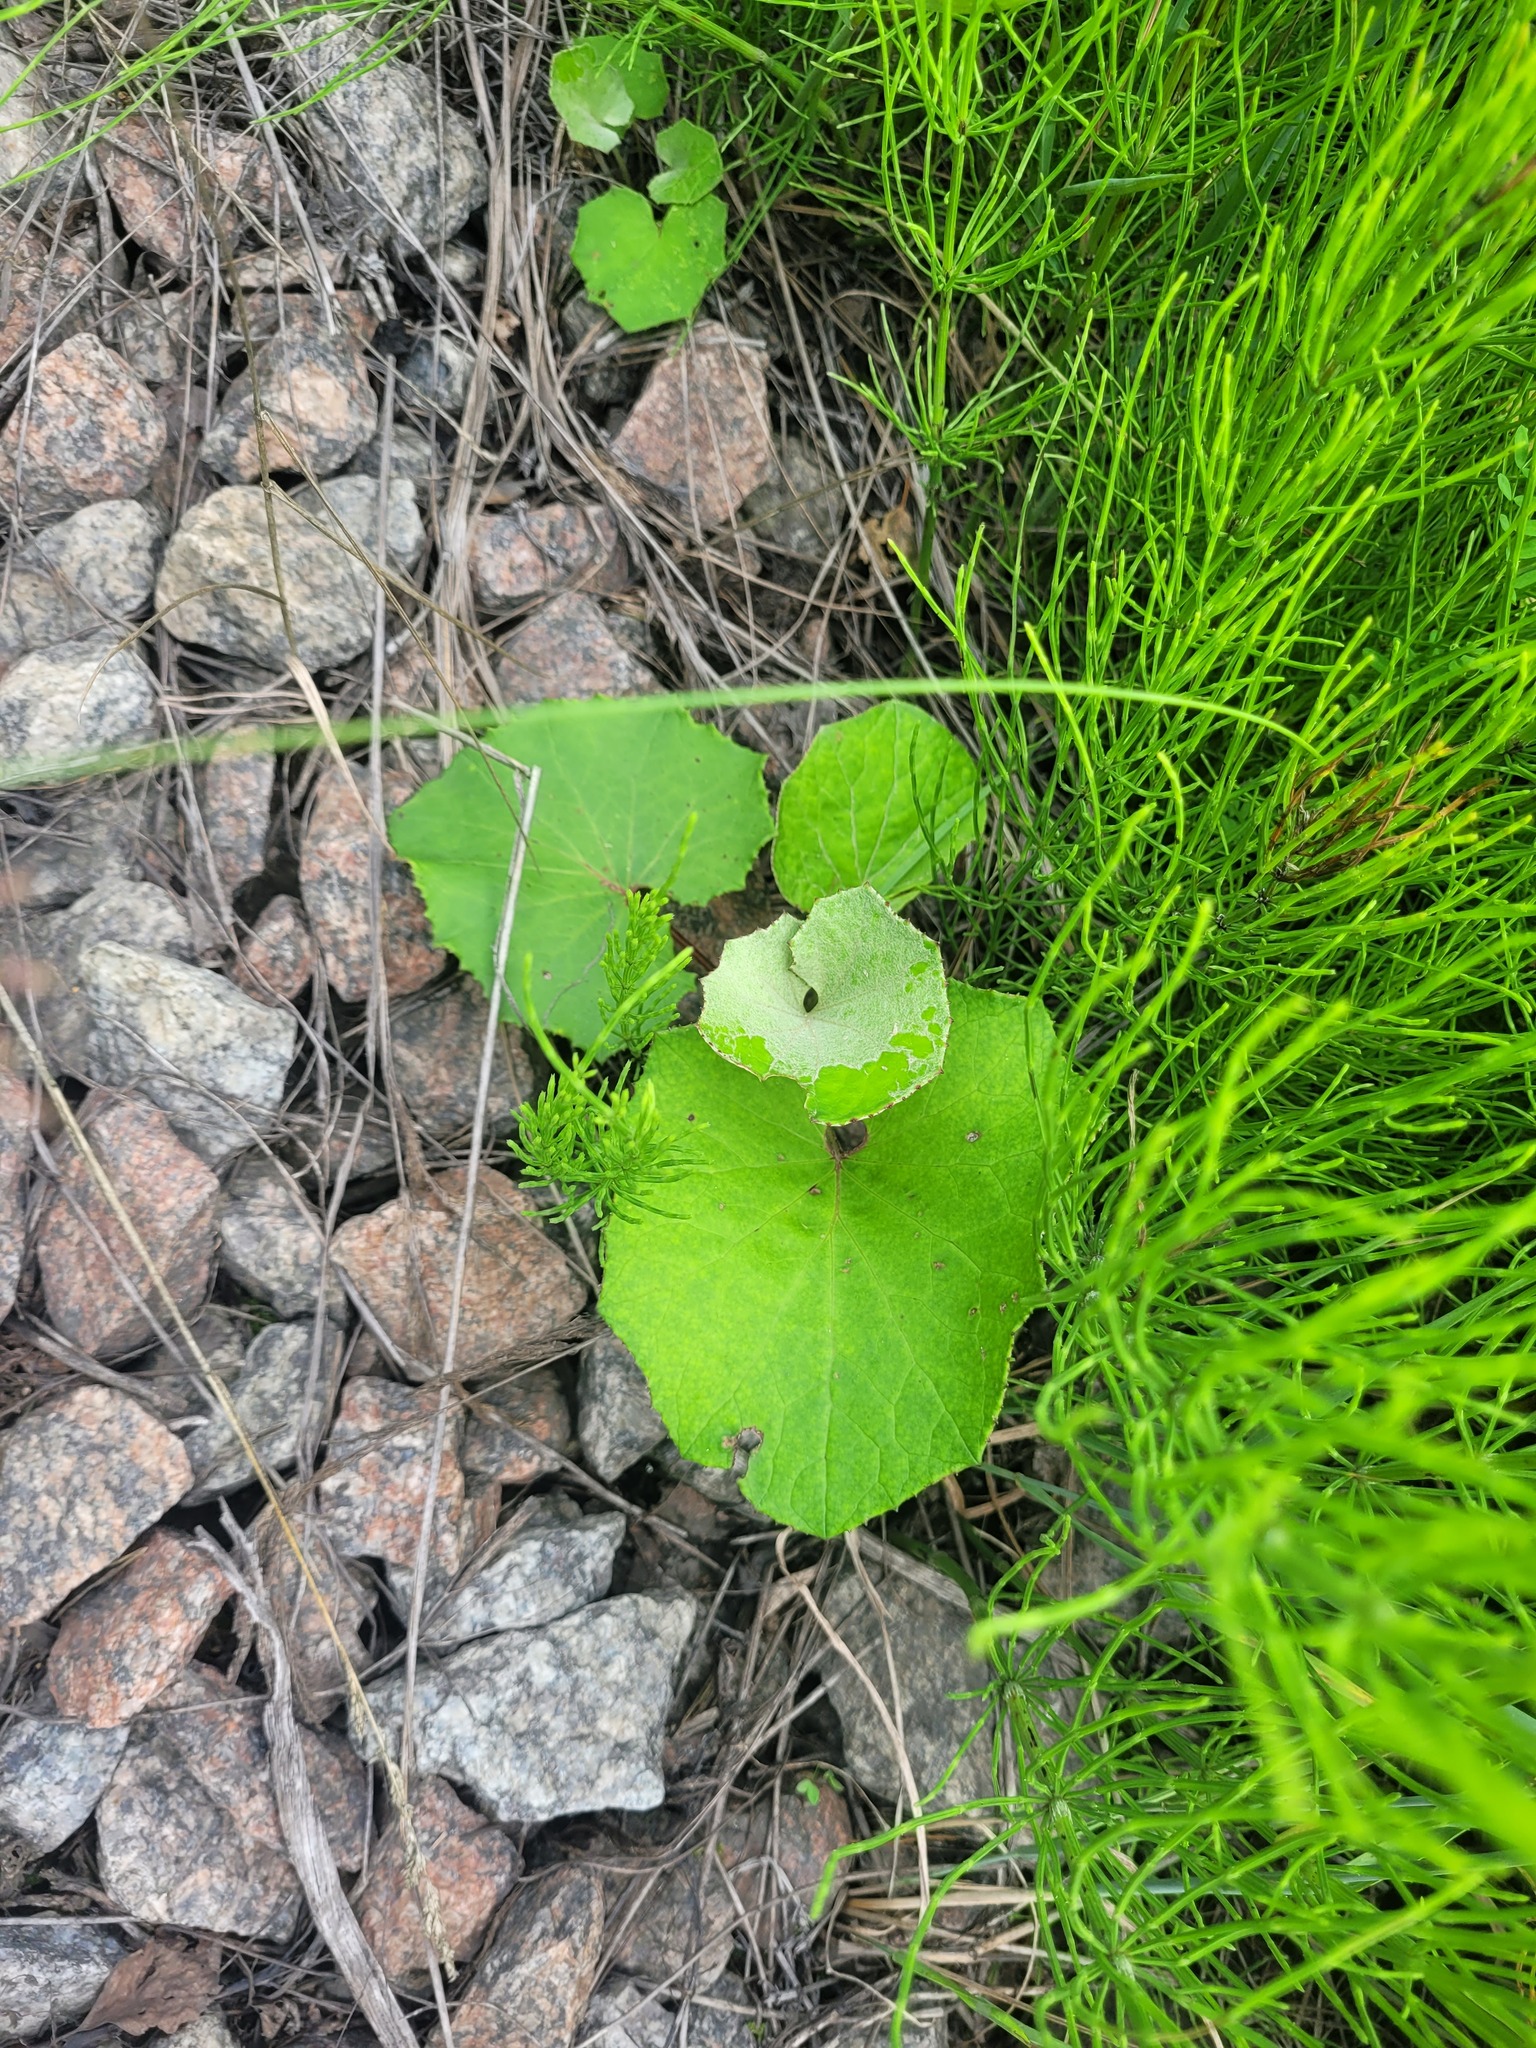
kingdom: Plantae
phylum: Tracheophyta
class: Magnoliopsida
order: Asterales
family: Asteraceae
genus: Tussilago
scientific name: Tussilago farfara
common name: Coltsfoot
